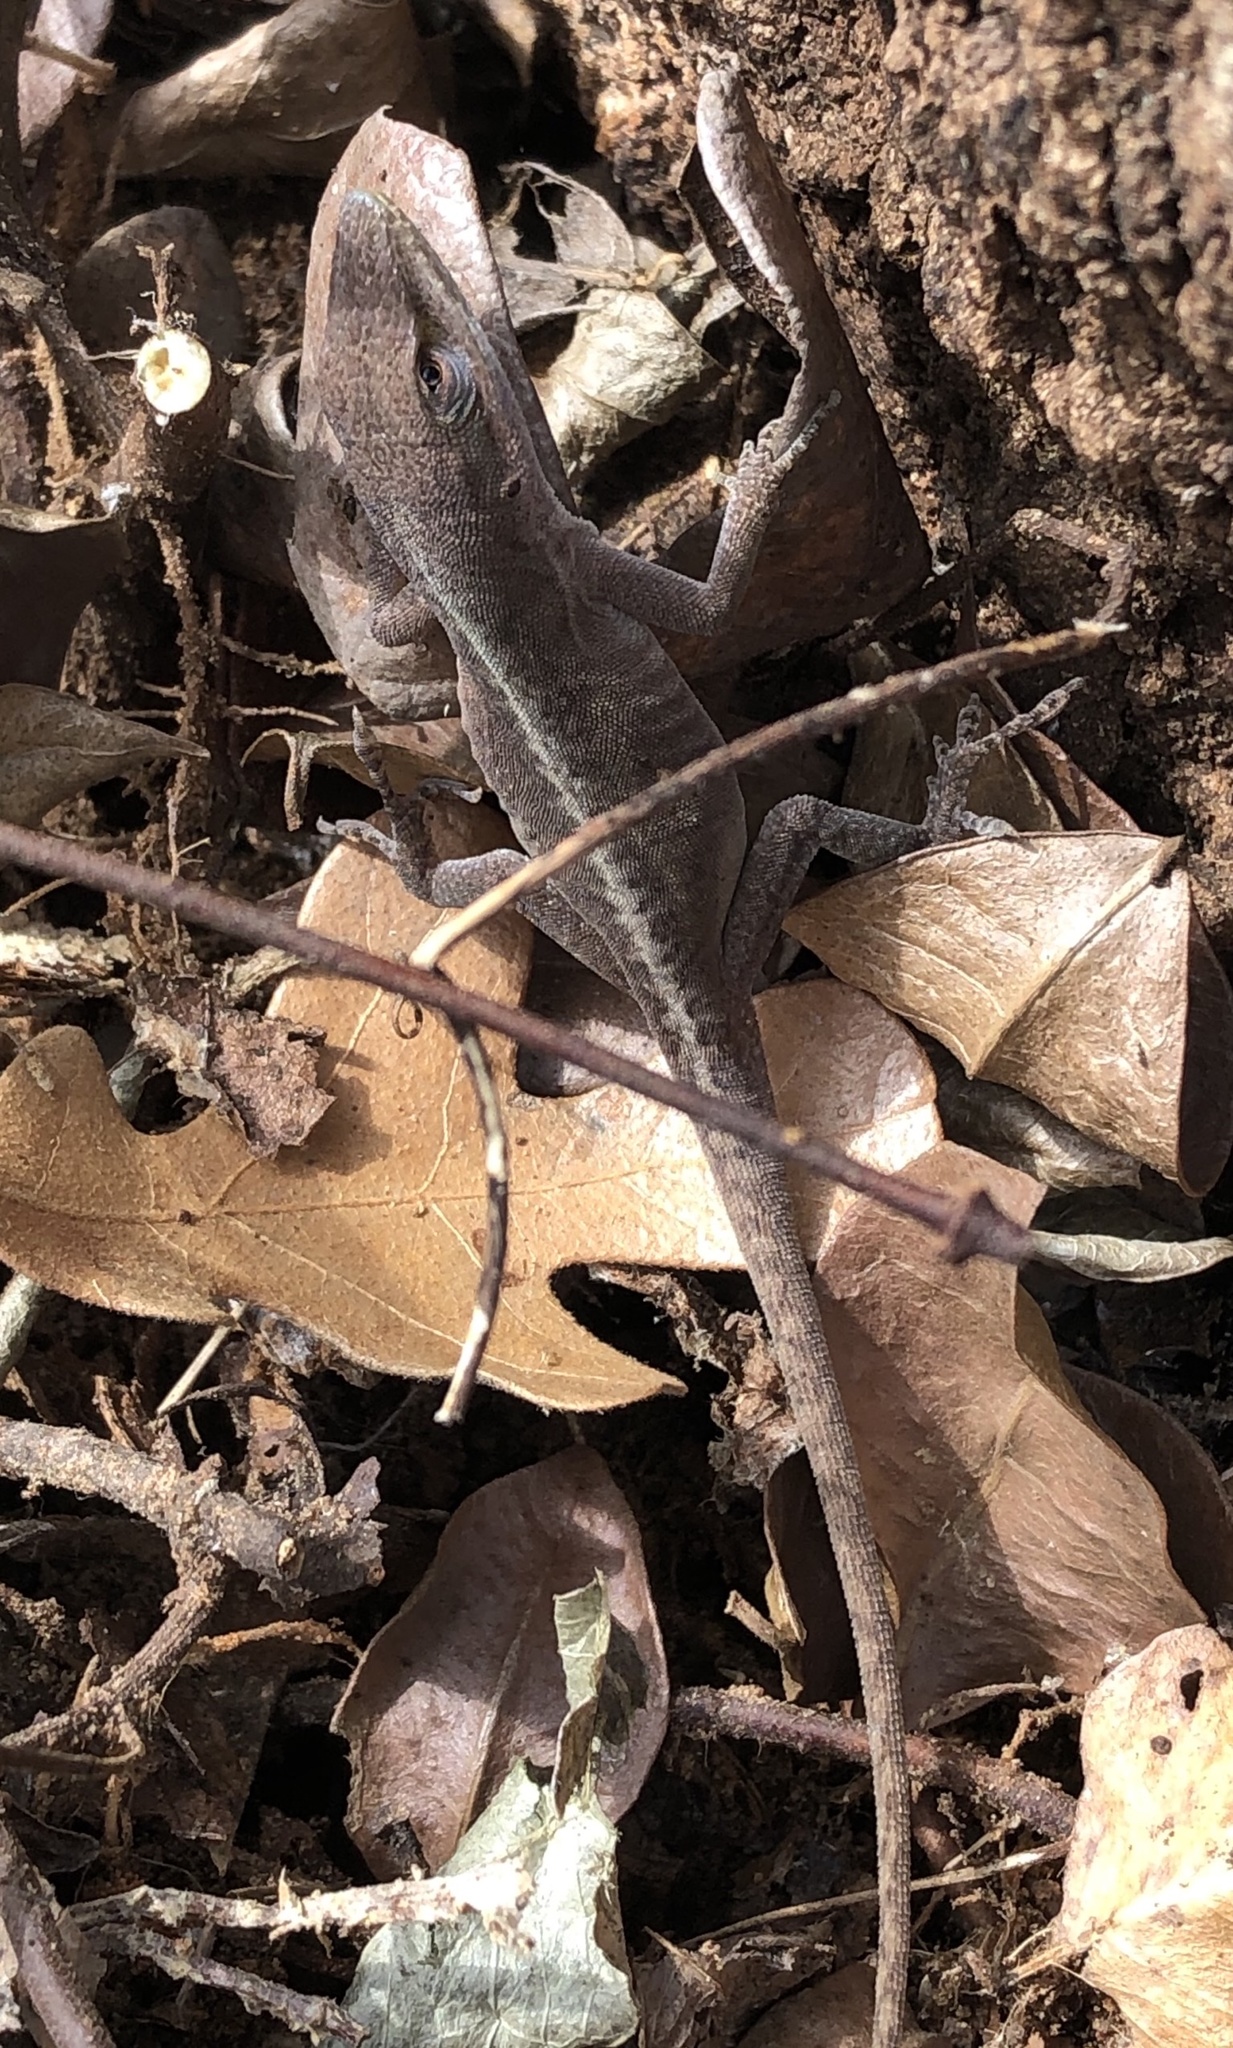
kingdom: Animalia
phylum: Chordata
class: Squamata
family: Dactyloidae
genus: Anolis
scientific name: Anolis carolinensis
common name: Green anole
